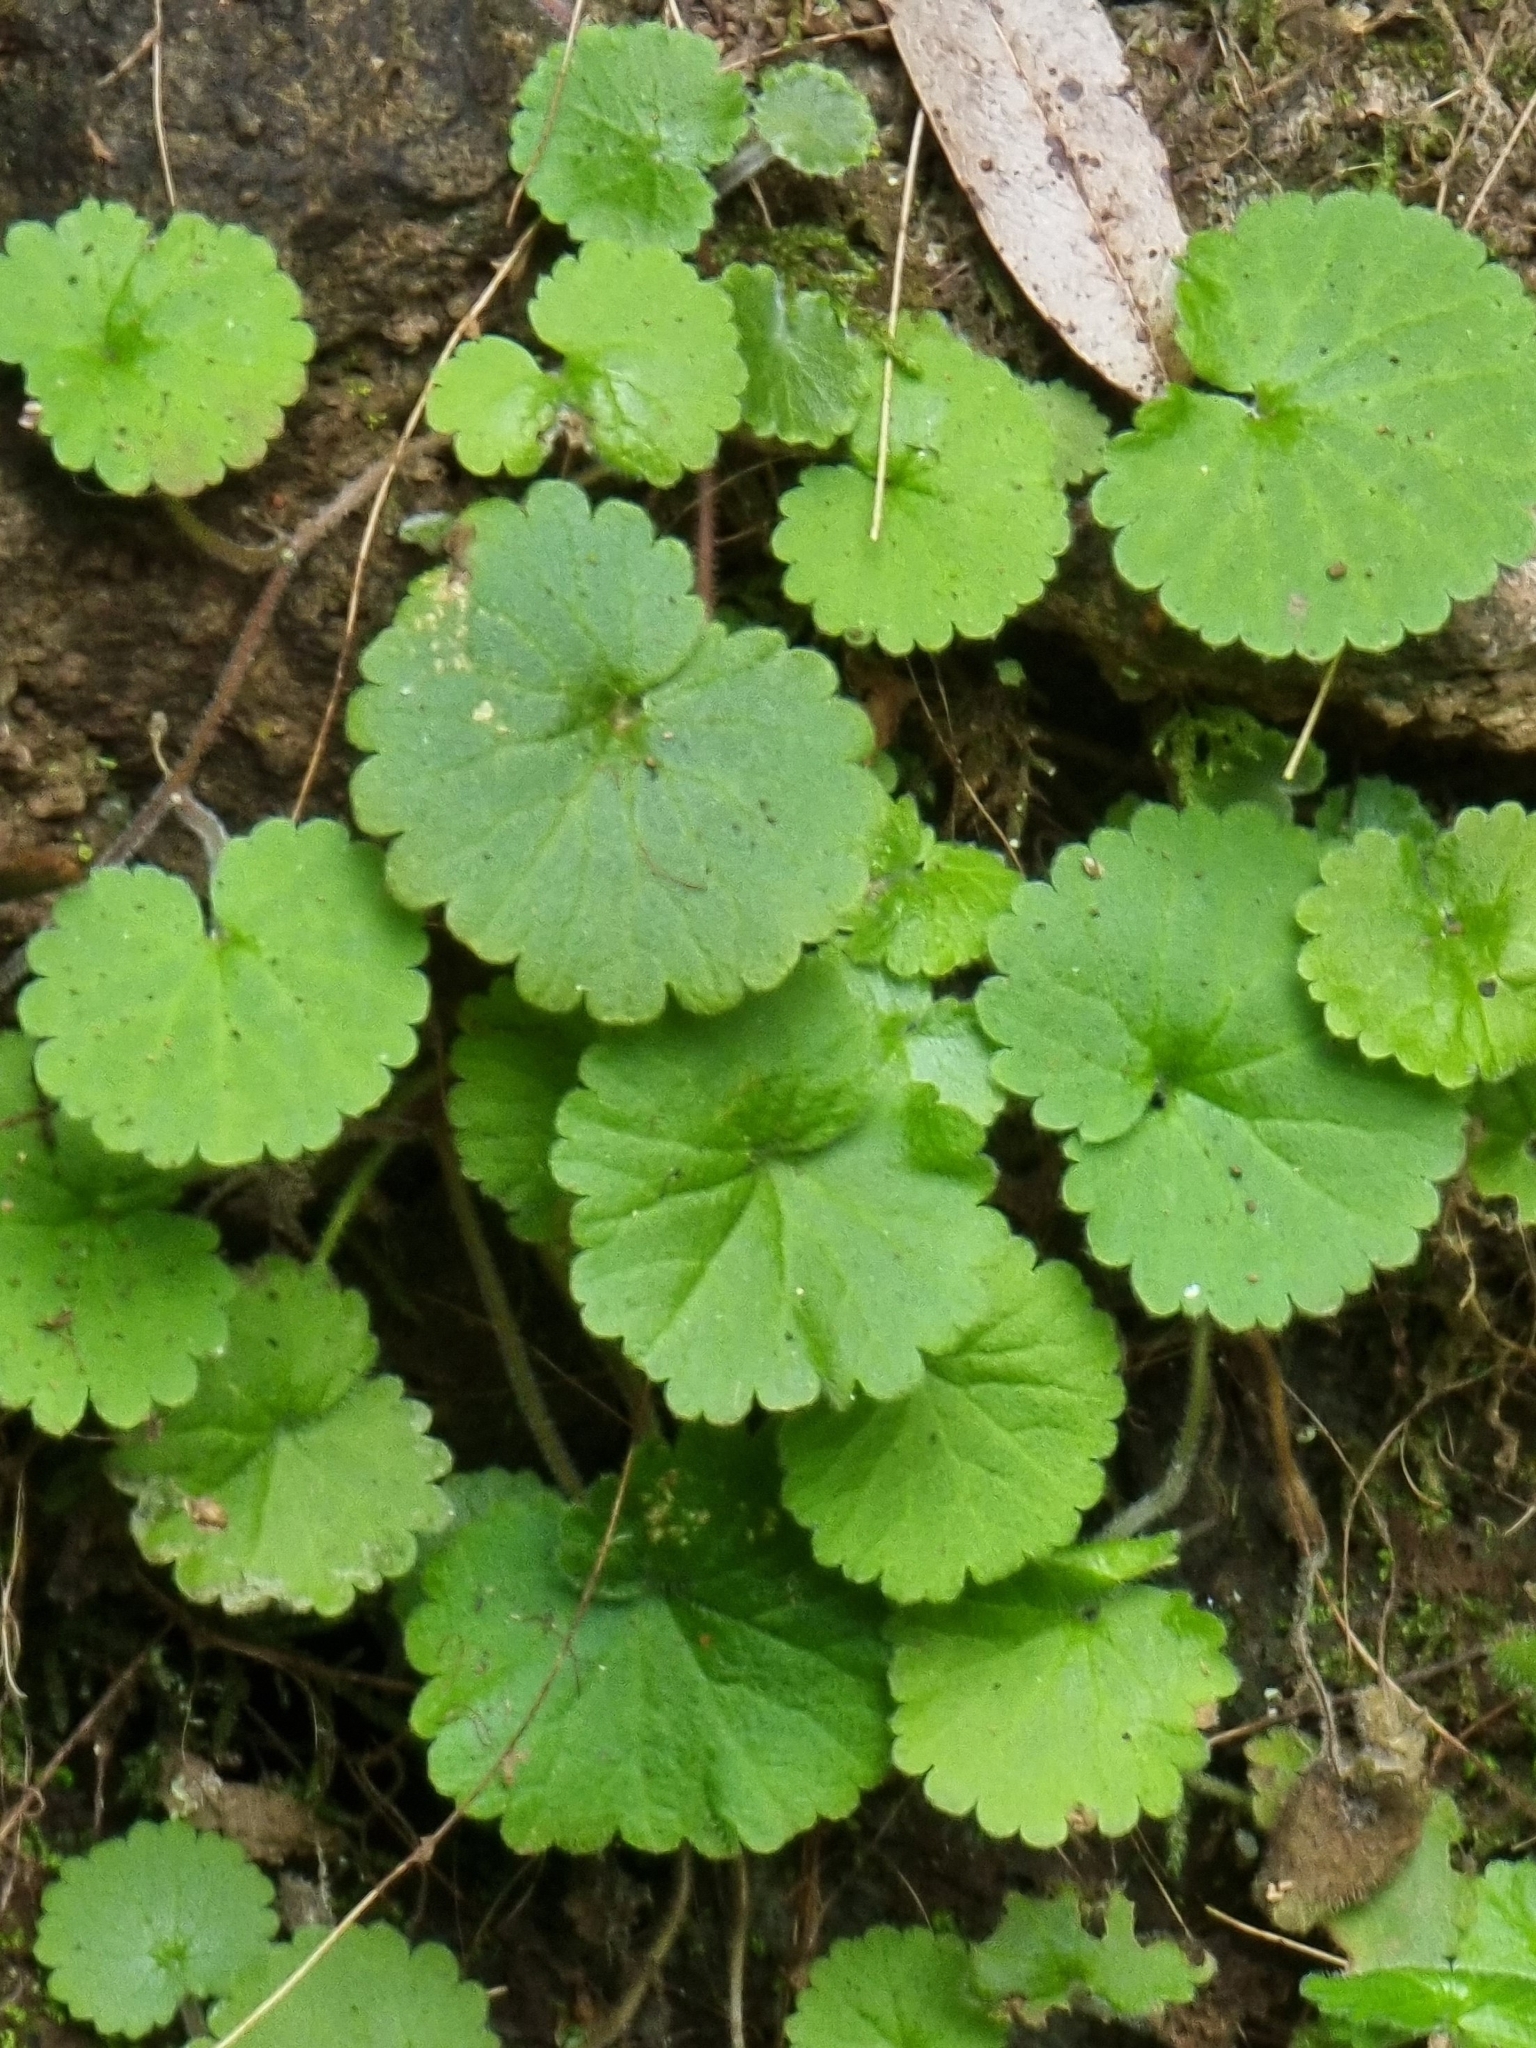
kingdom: Plantae
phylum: Tracheophyta
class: Magnoliopsida
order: Lamiales
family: Plantaginaceae
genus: Sibthorpia
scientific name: Sibthorpia peregrina
